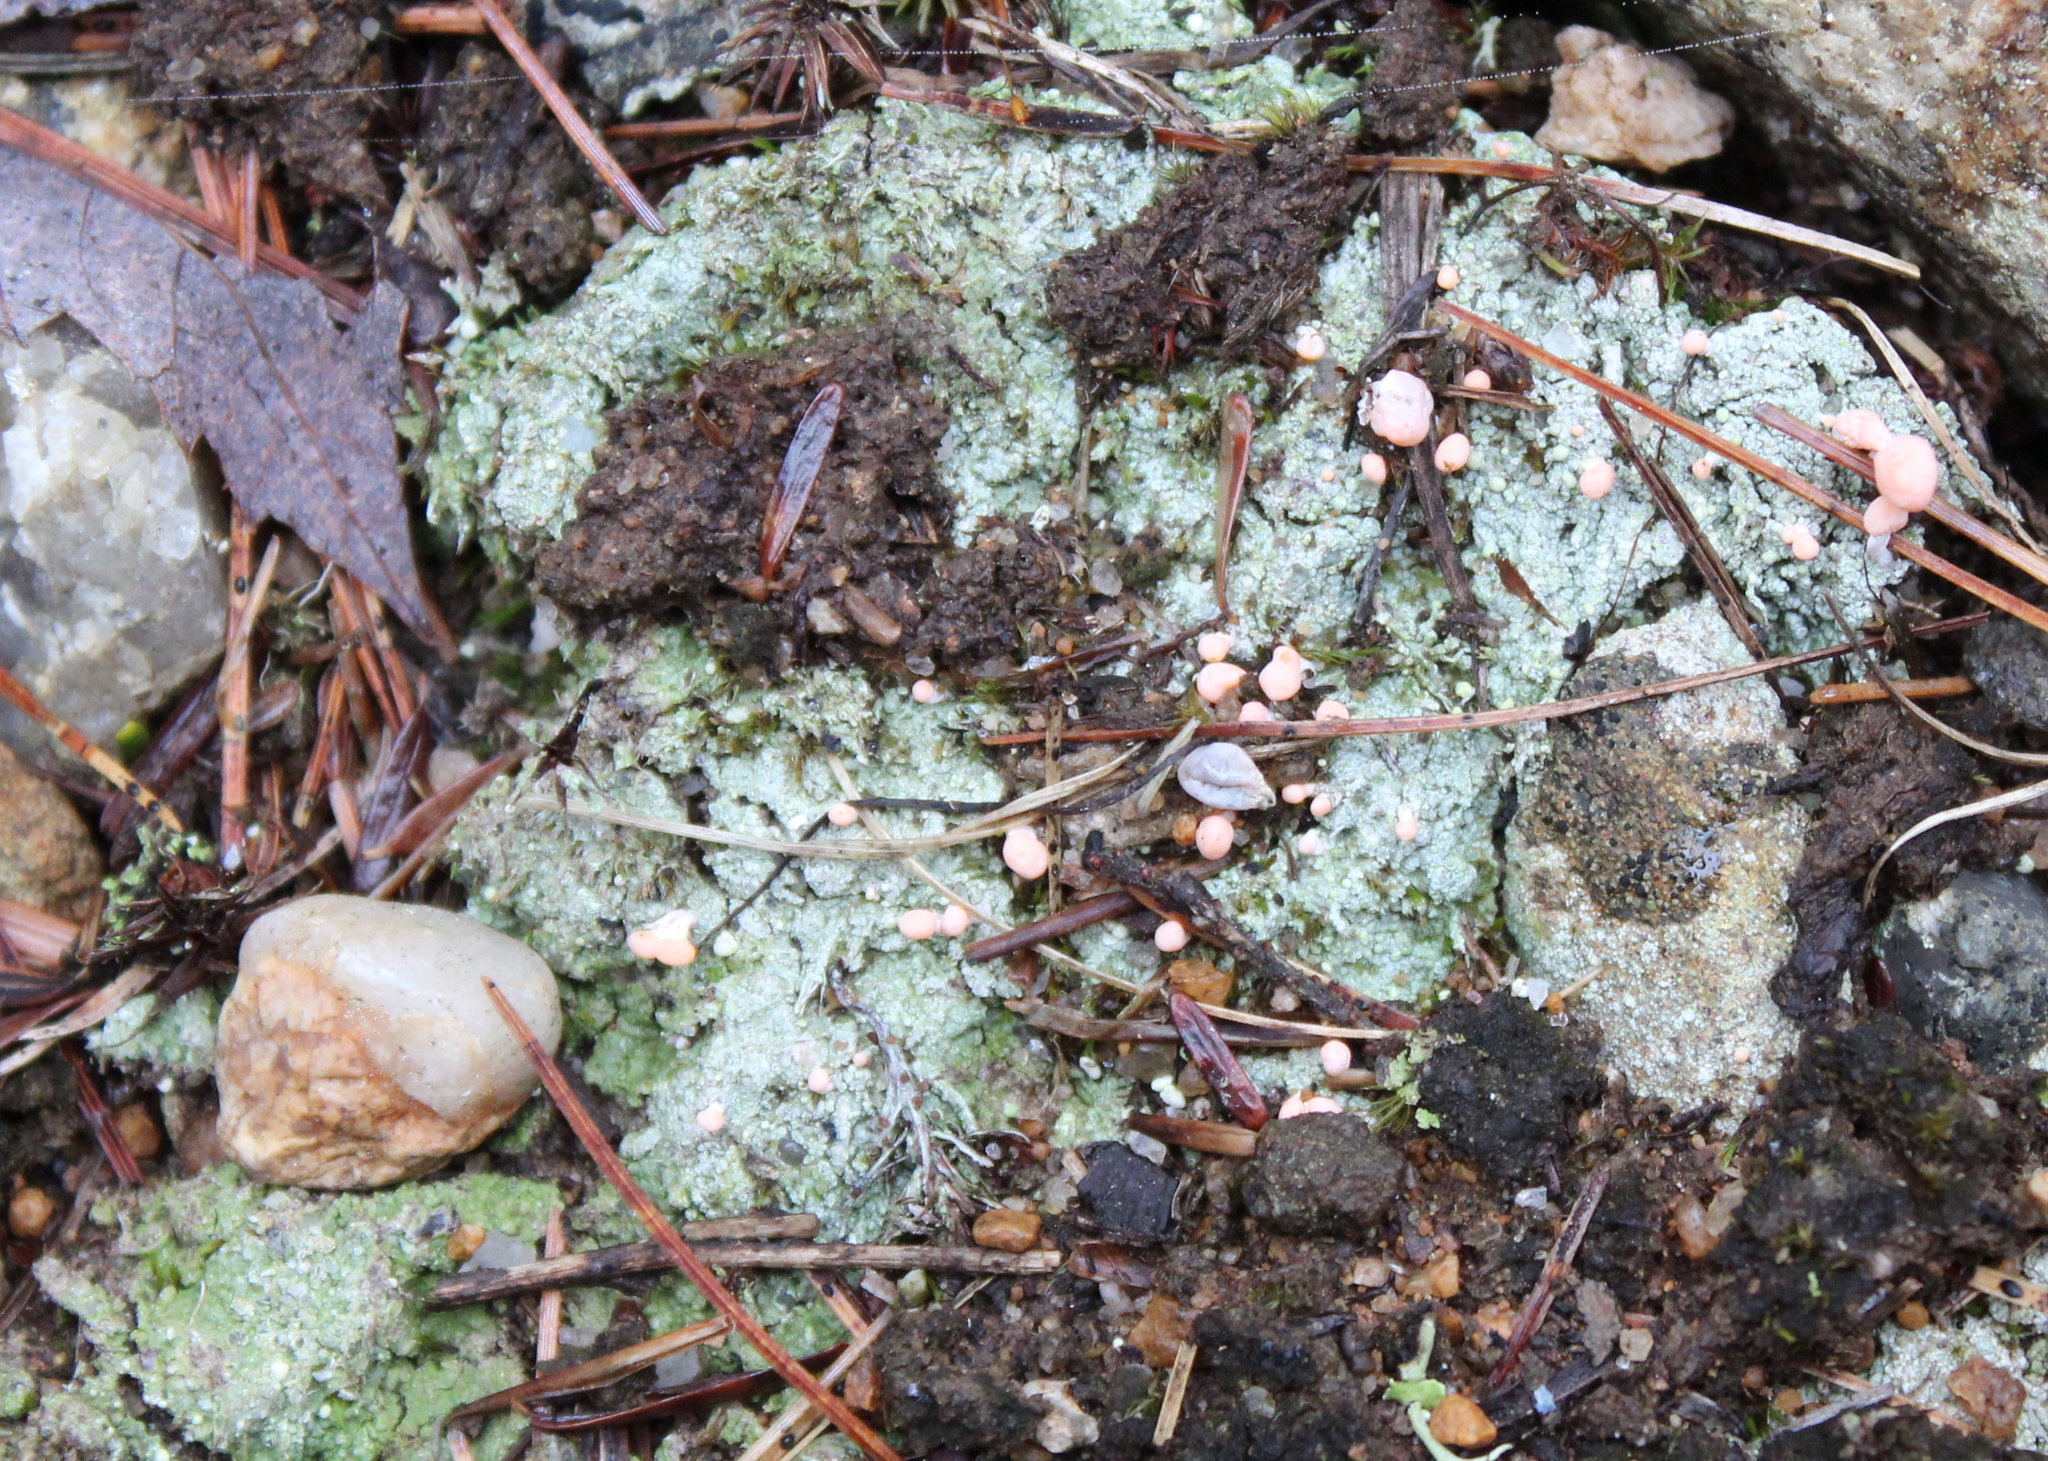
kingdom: Fungi
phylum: Ascomycota
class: Lecanoromycetes
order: Pertusariales
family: Icmadophilaceae
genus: Dibaeis
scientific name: Dibaeis baeomyces
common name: Pink earth lichen
